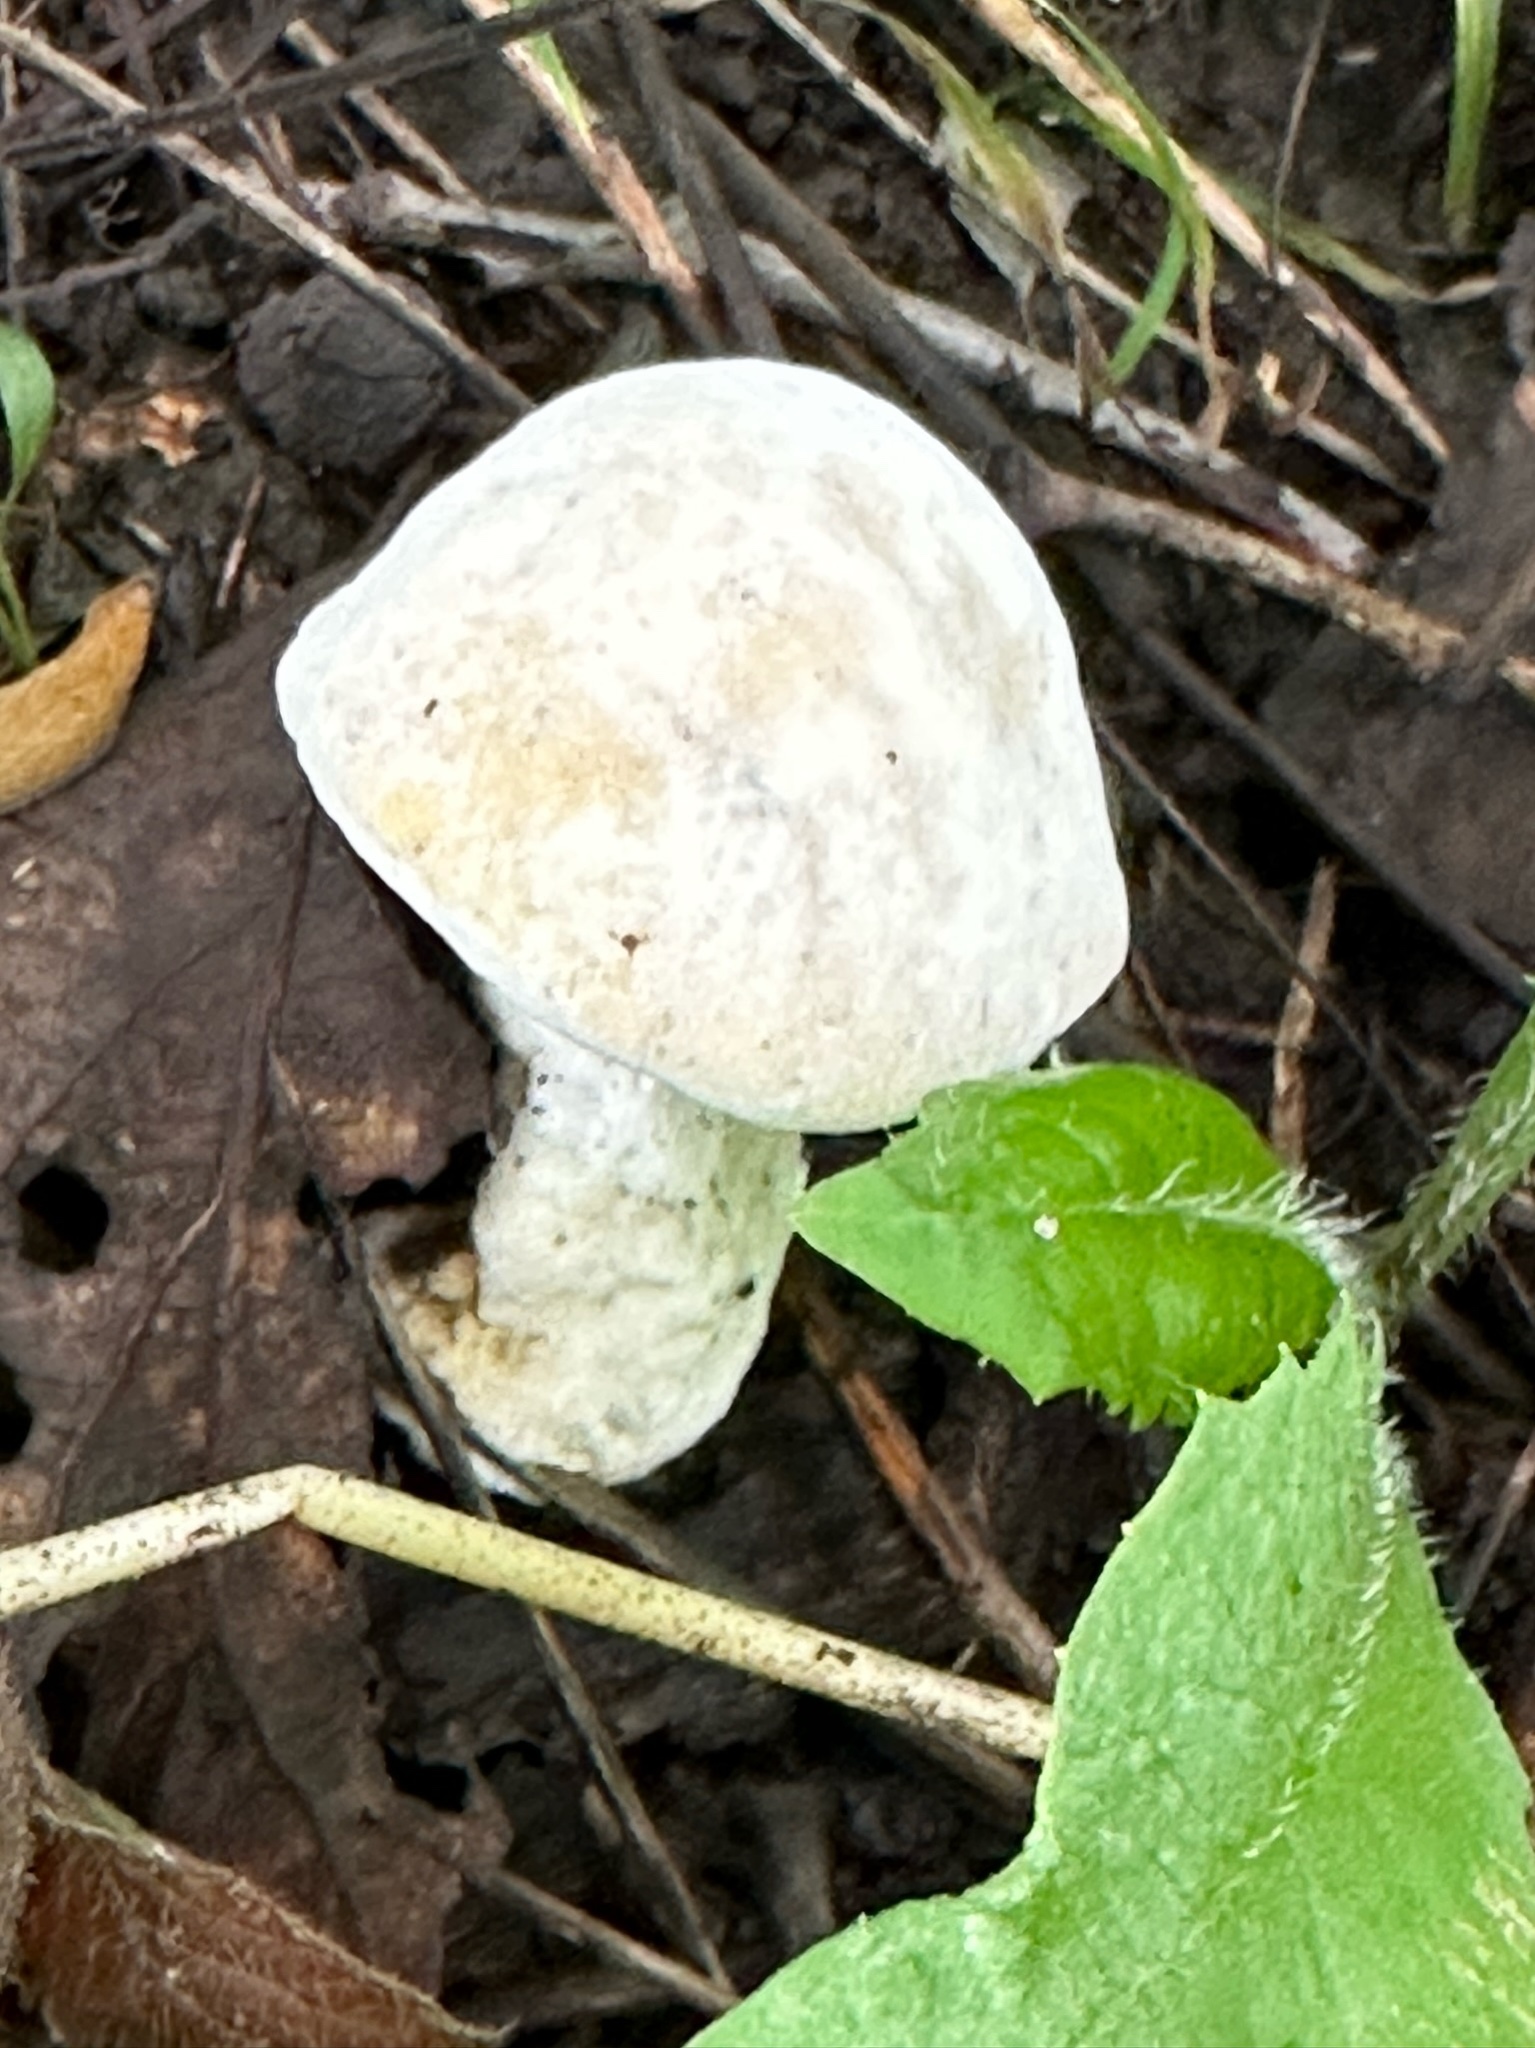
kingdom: Fungi
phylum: Ascomycota
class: Sordariomycetes
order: Hypocreales
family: Hypocreaceae
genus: Hypomyces
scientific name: Hypomyces chrysospermus
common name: Bolete mould
